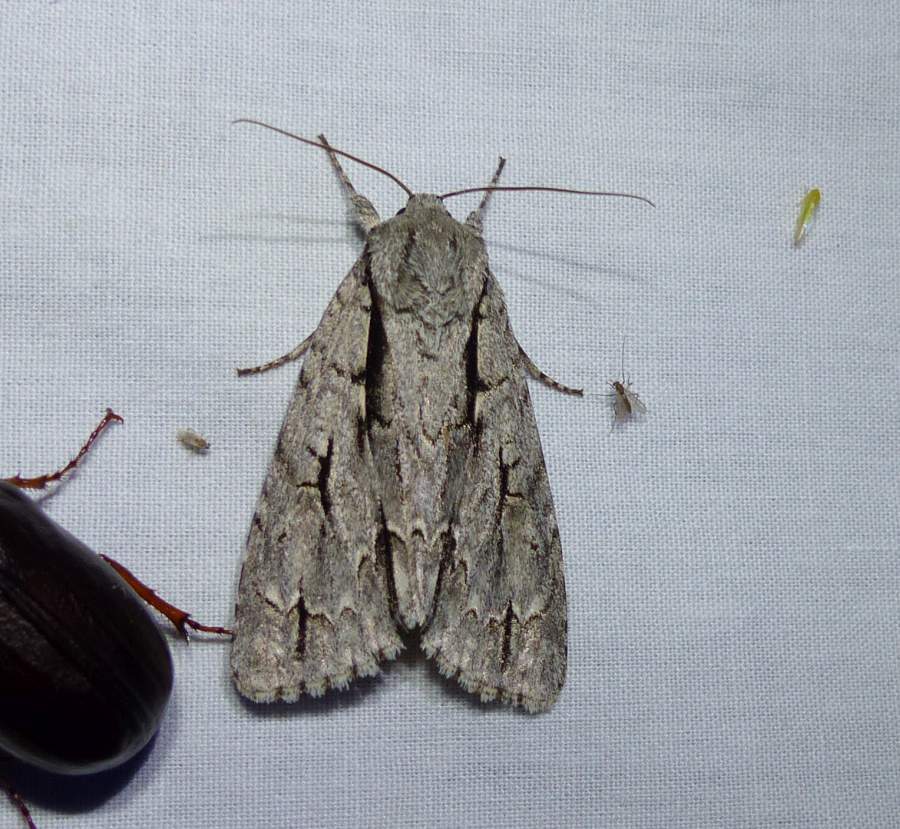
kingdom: Animalia
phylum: Arthropoda
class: Insecta
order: Lepidoptera
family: Noctuidae
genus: Acronicta
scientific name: Acronicta hasta
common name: Cherry dagger
